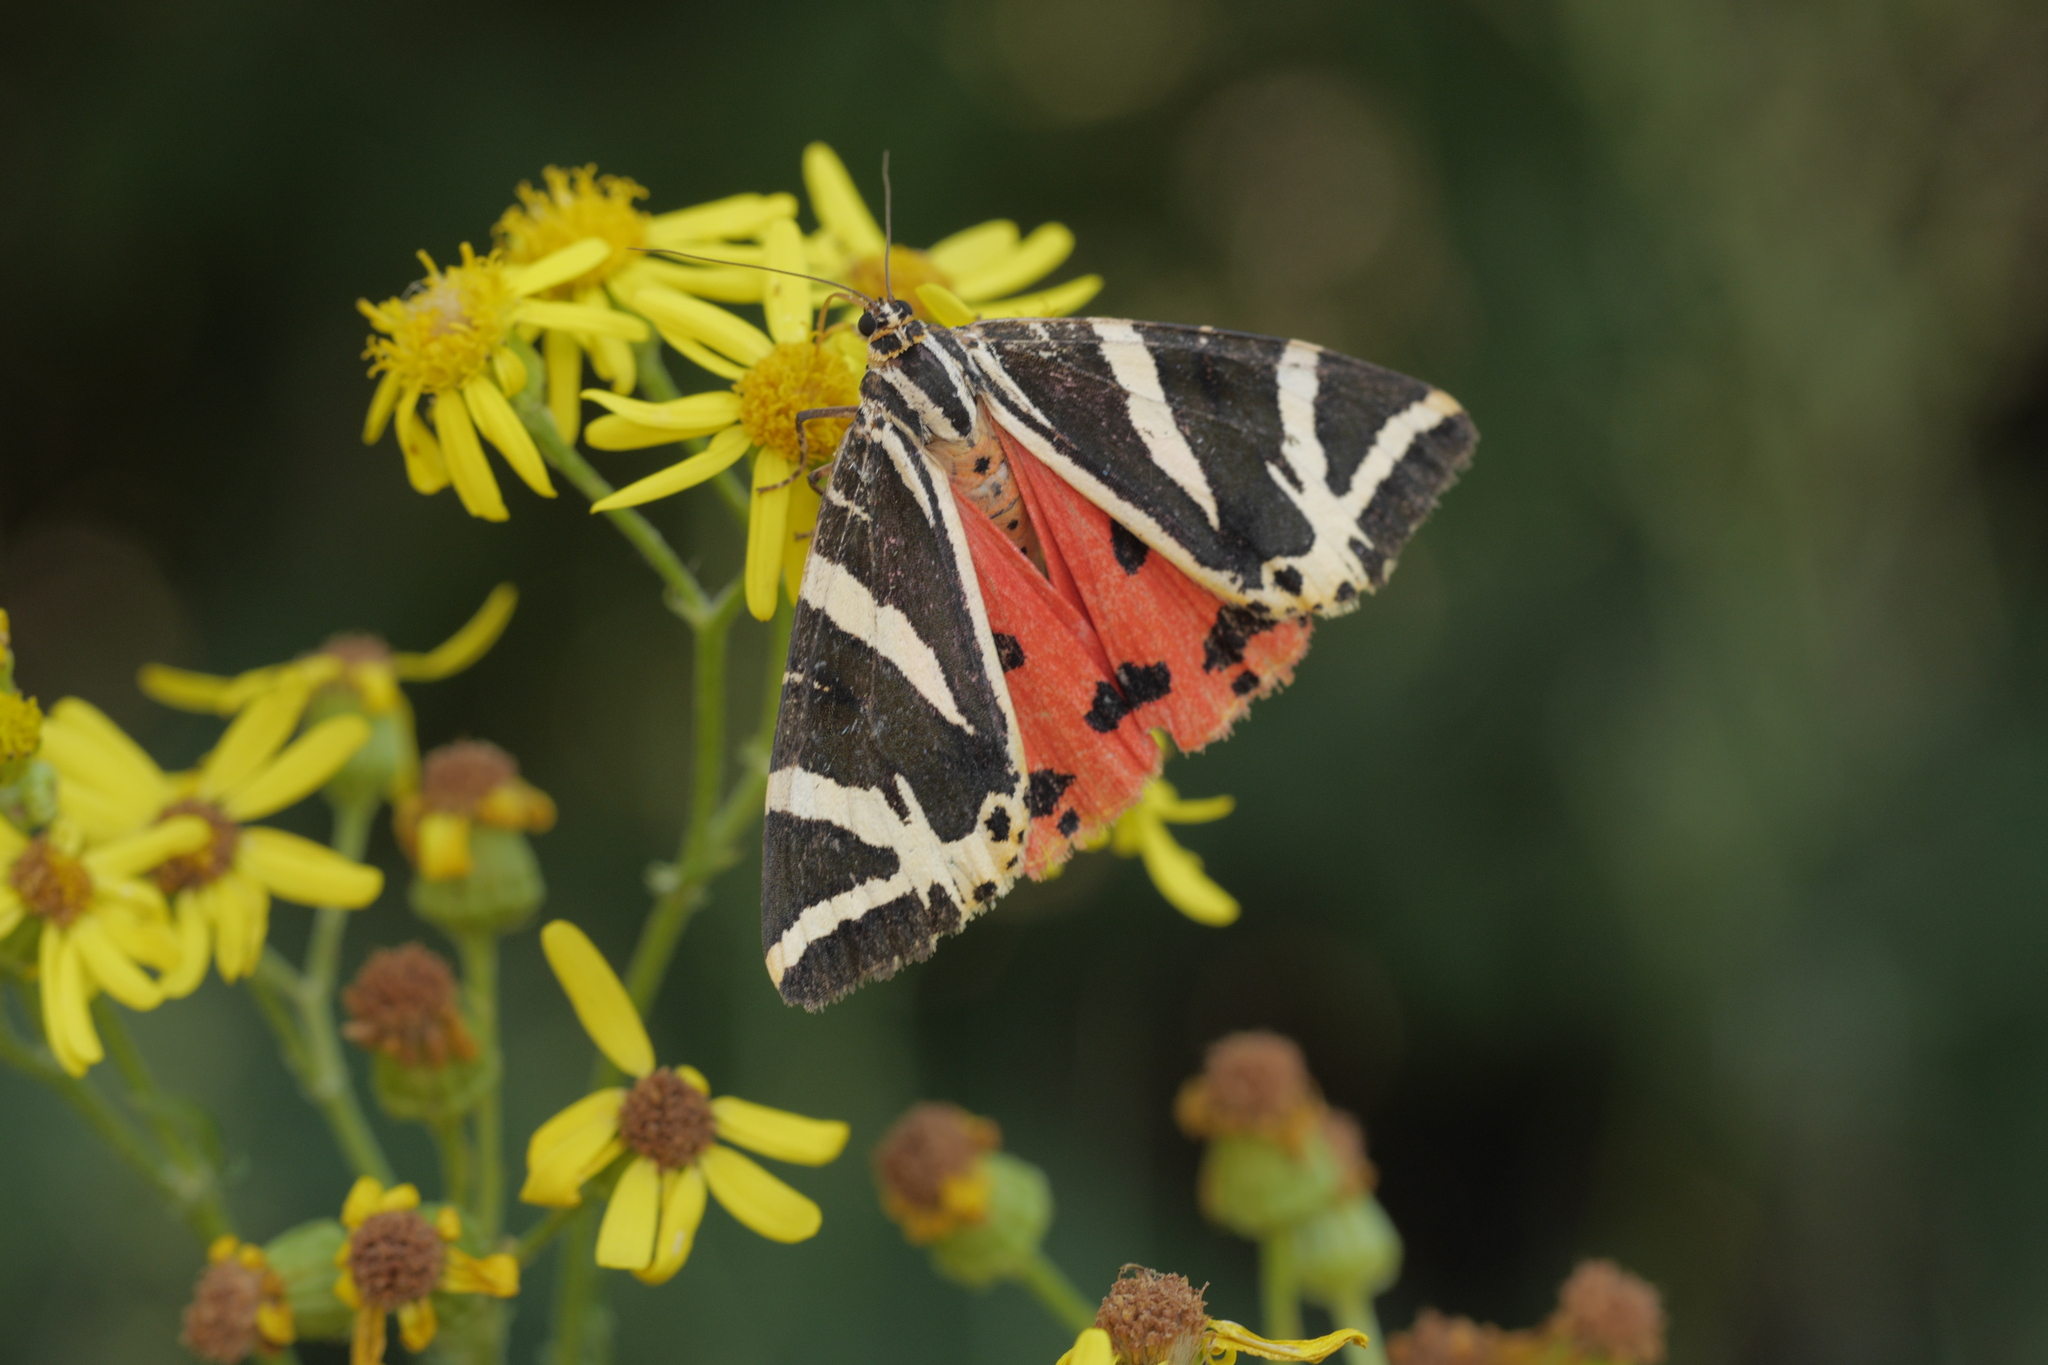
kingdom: Animalia
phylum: Arthropoda
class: Insecta
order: Lepidoptera
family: Erebidae
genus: Euplagia
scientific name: Euplagia quadripunctaria
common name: Jersey tiger
